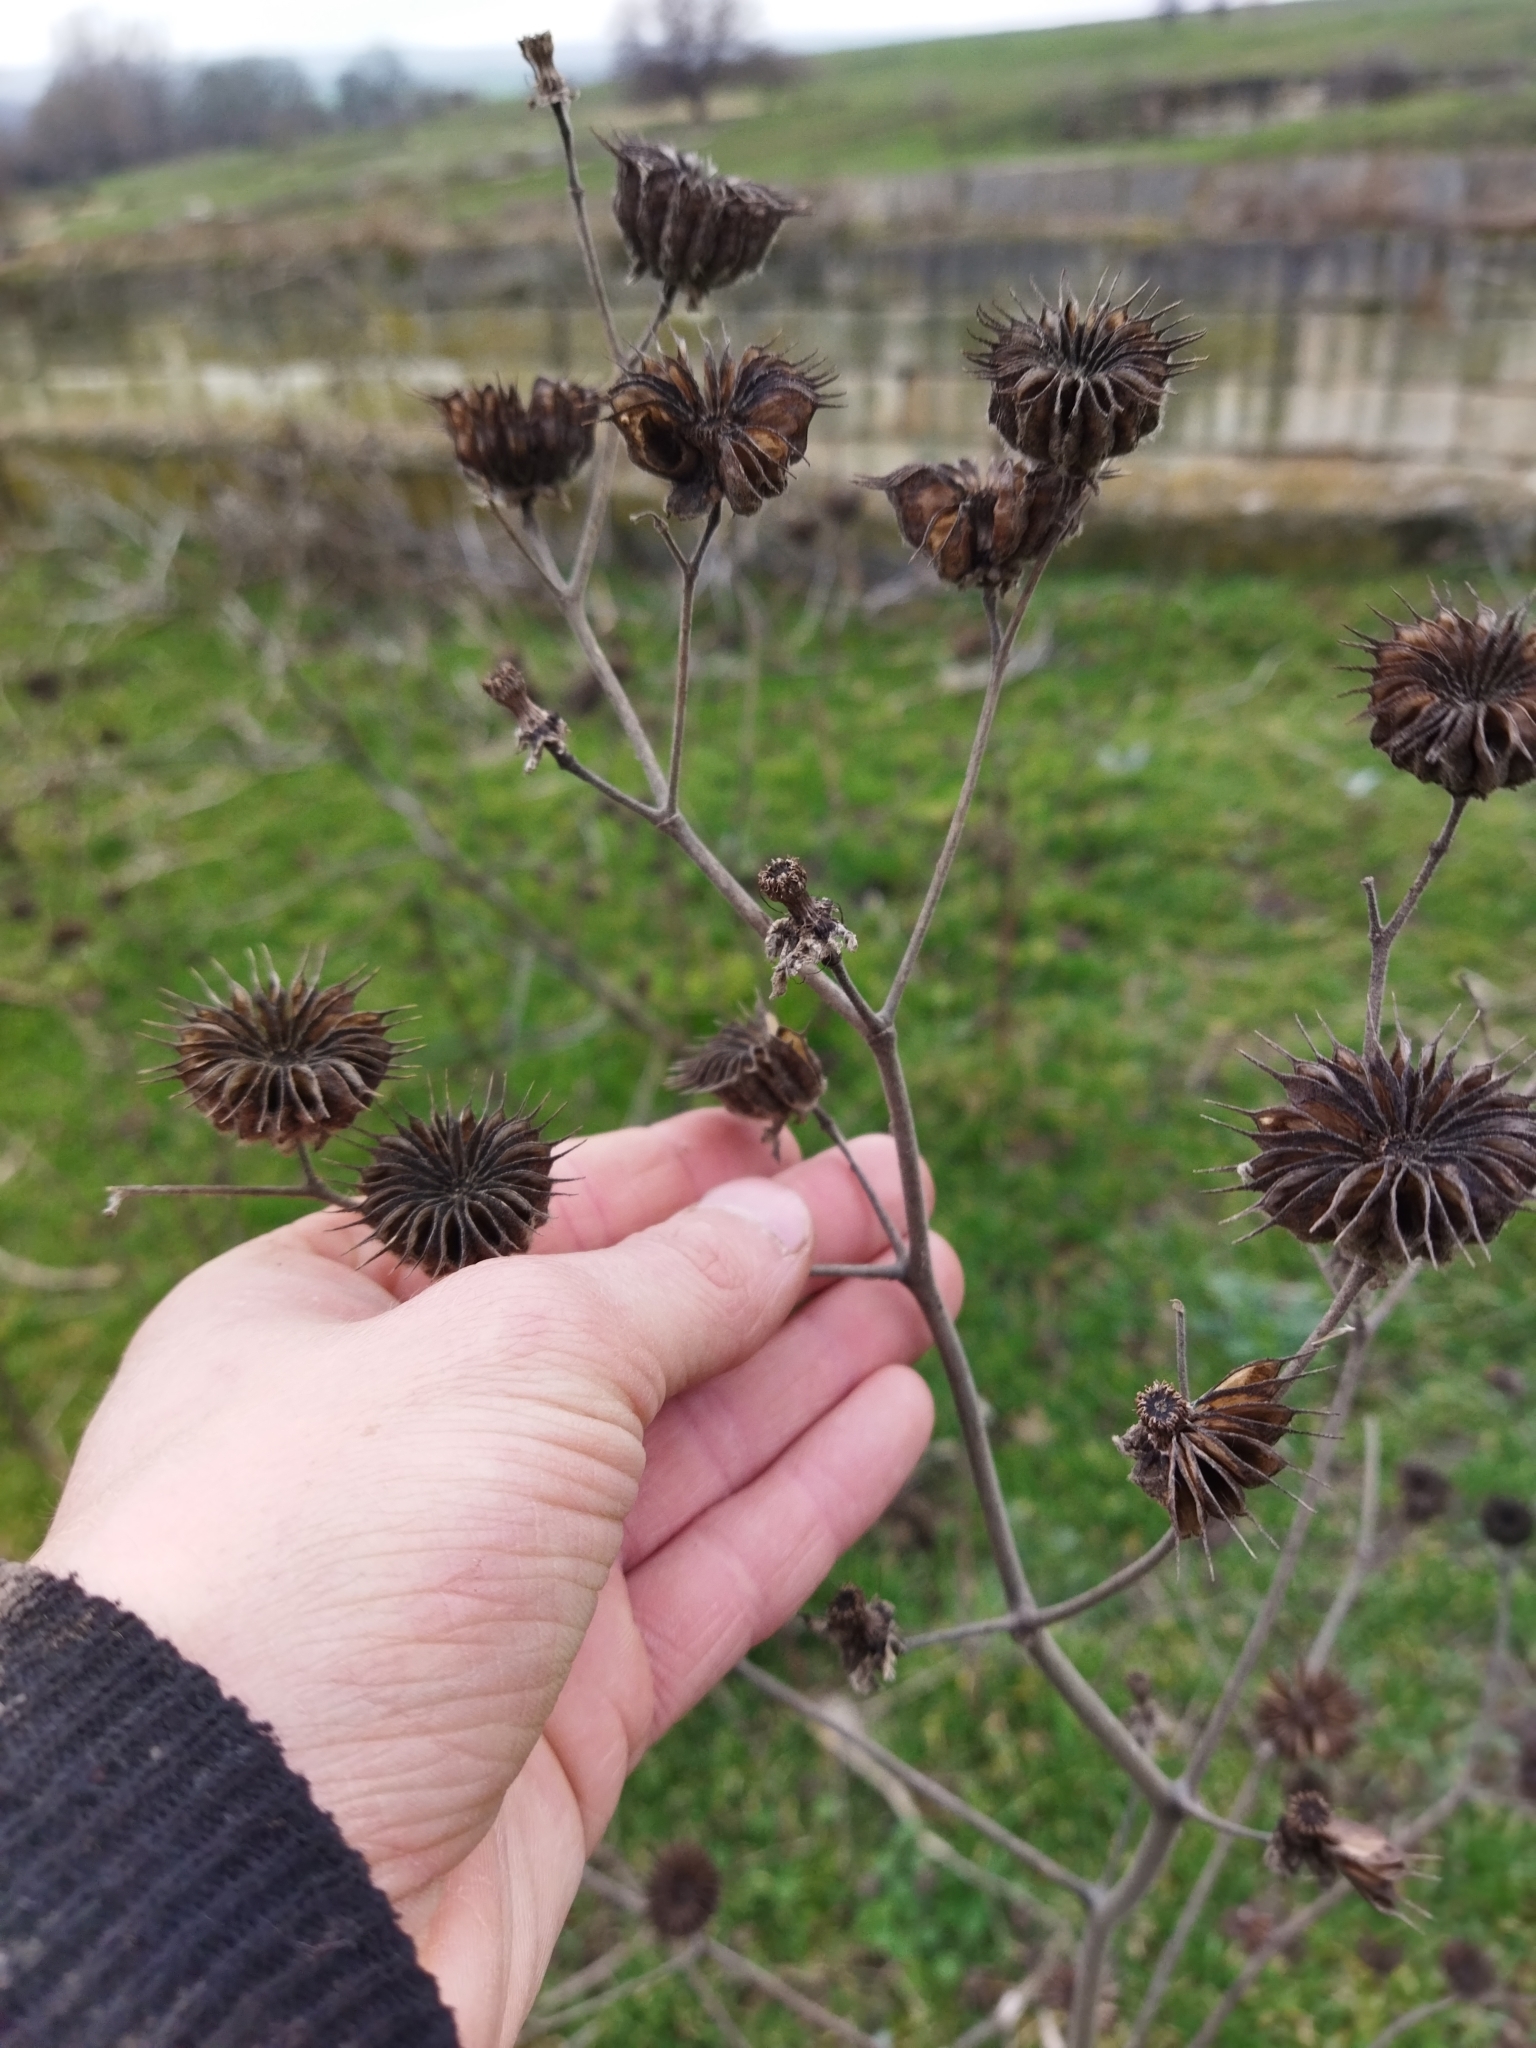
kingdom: Plantae
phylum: Tracheophyta
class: Magnoliopsida
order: Malvales
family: Malvaceae
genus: Abutilon
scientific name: Abutilon theophrasti
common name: Velvetleaf
